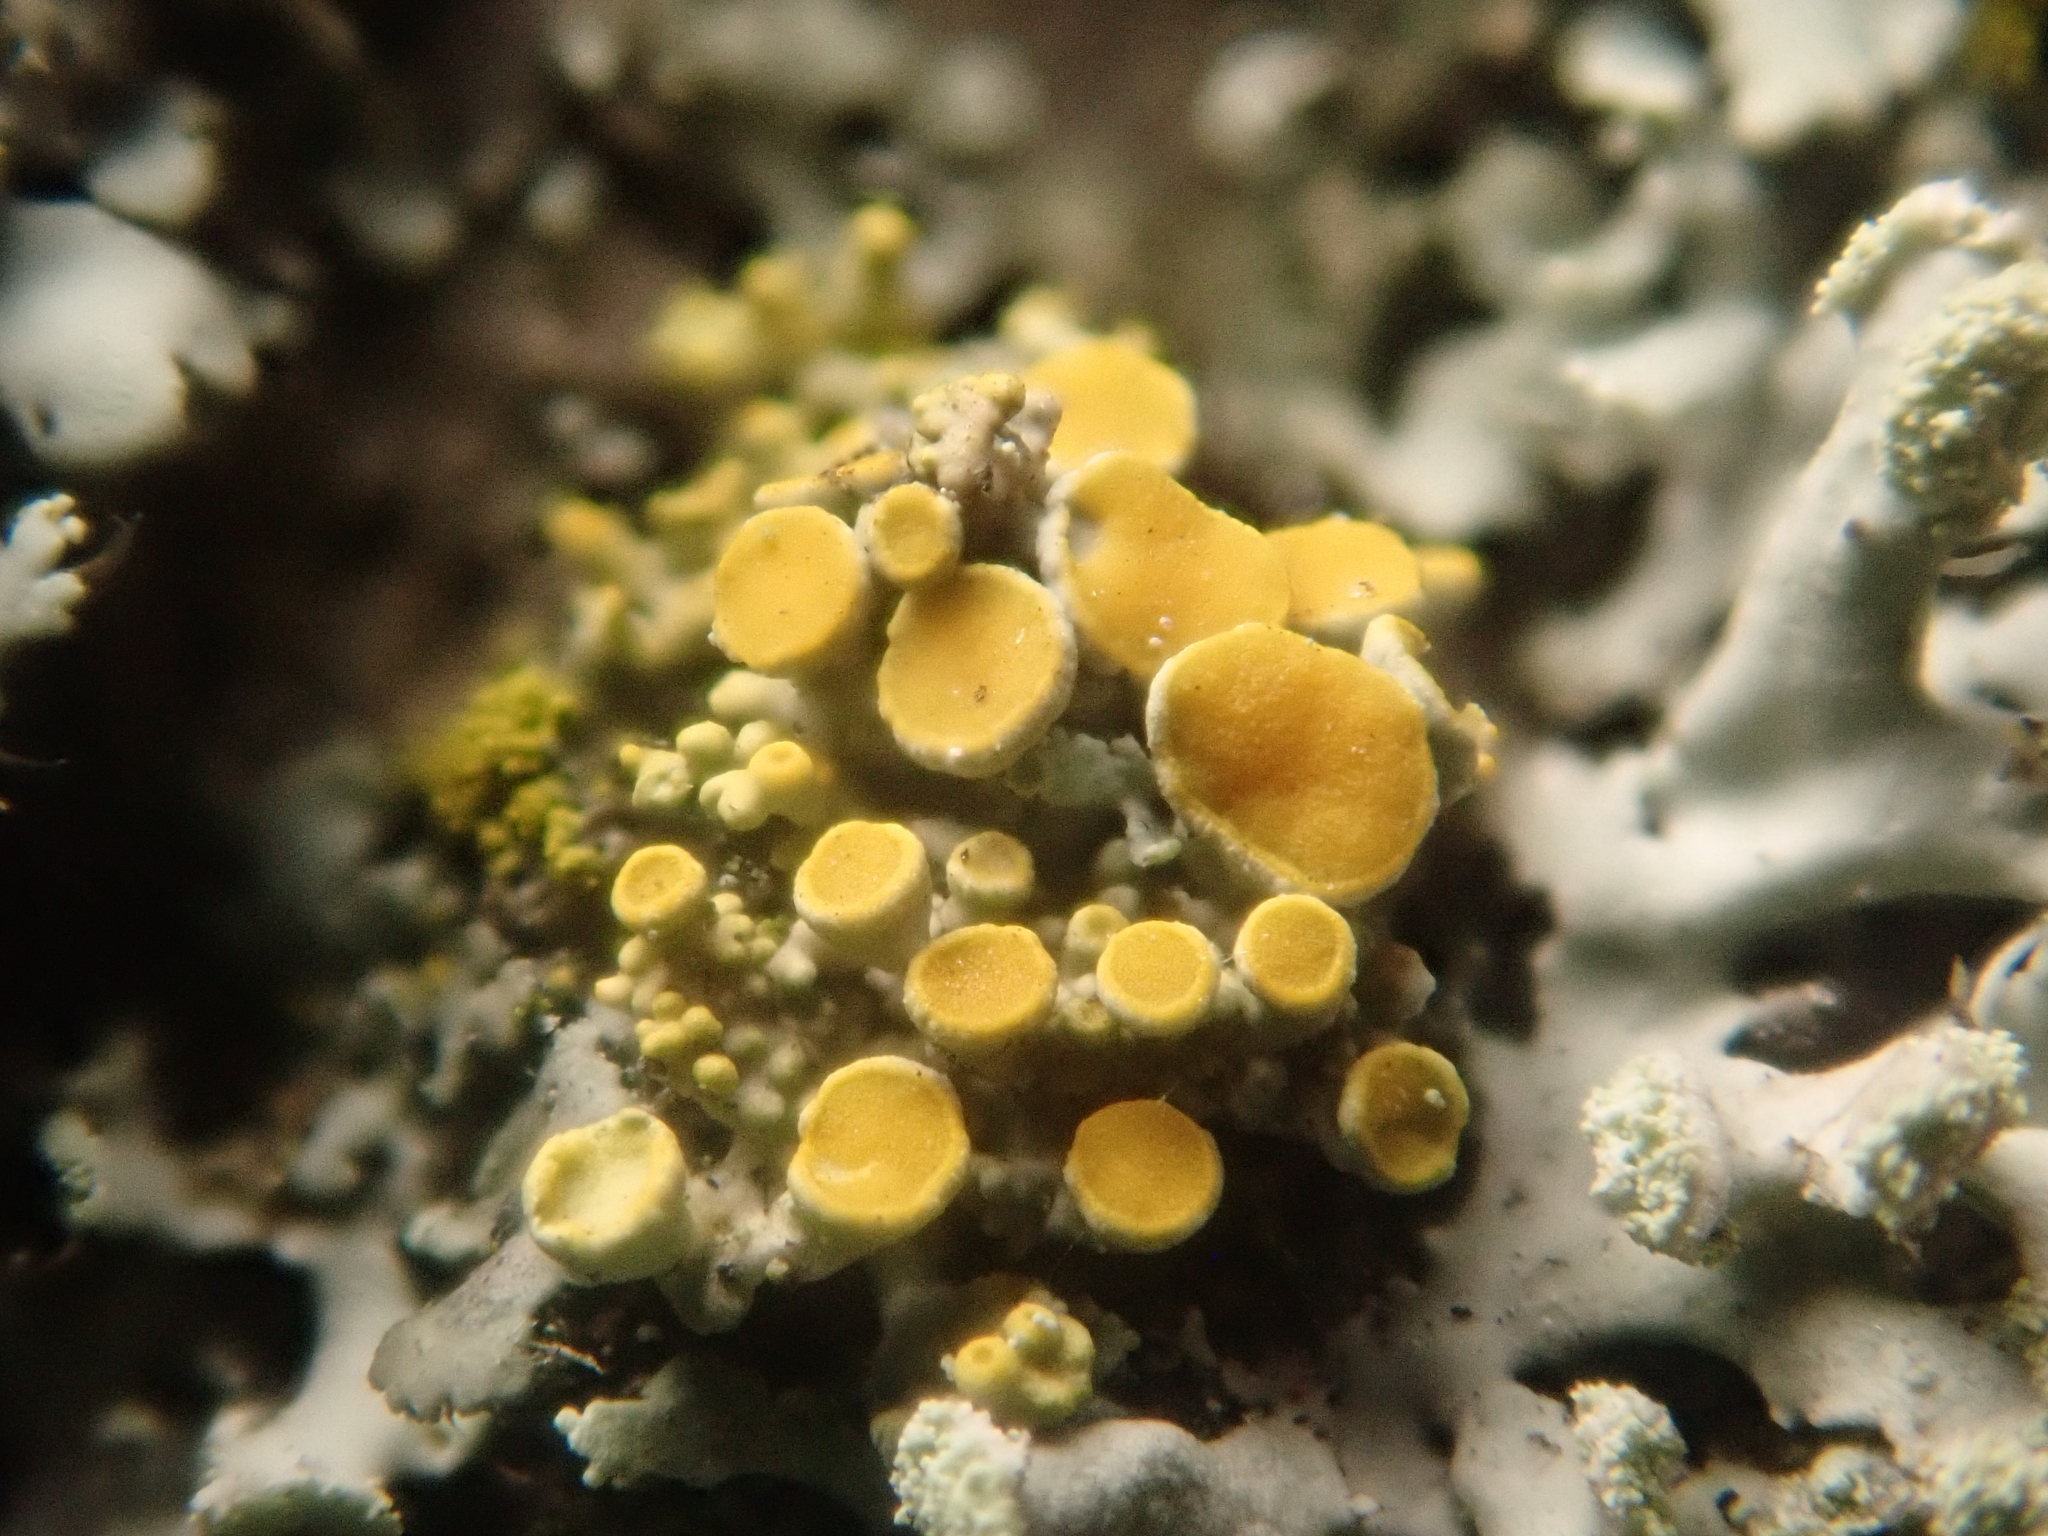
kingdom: Fungi
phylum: Ascomycota
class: Lecanoromycetes
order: Teloschistales
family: Teloschistaceae
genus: Polycauliona
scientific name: Polycauliona polycarpa
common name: Pin-cushion sunburst lichen
